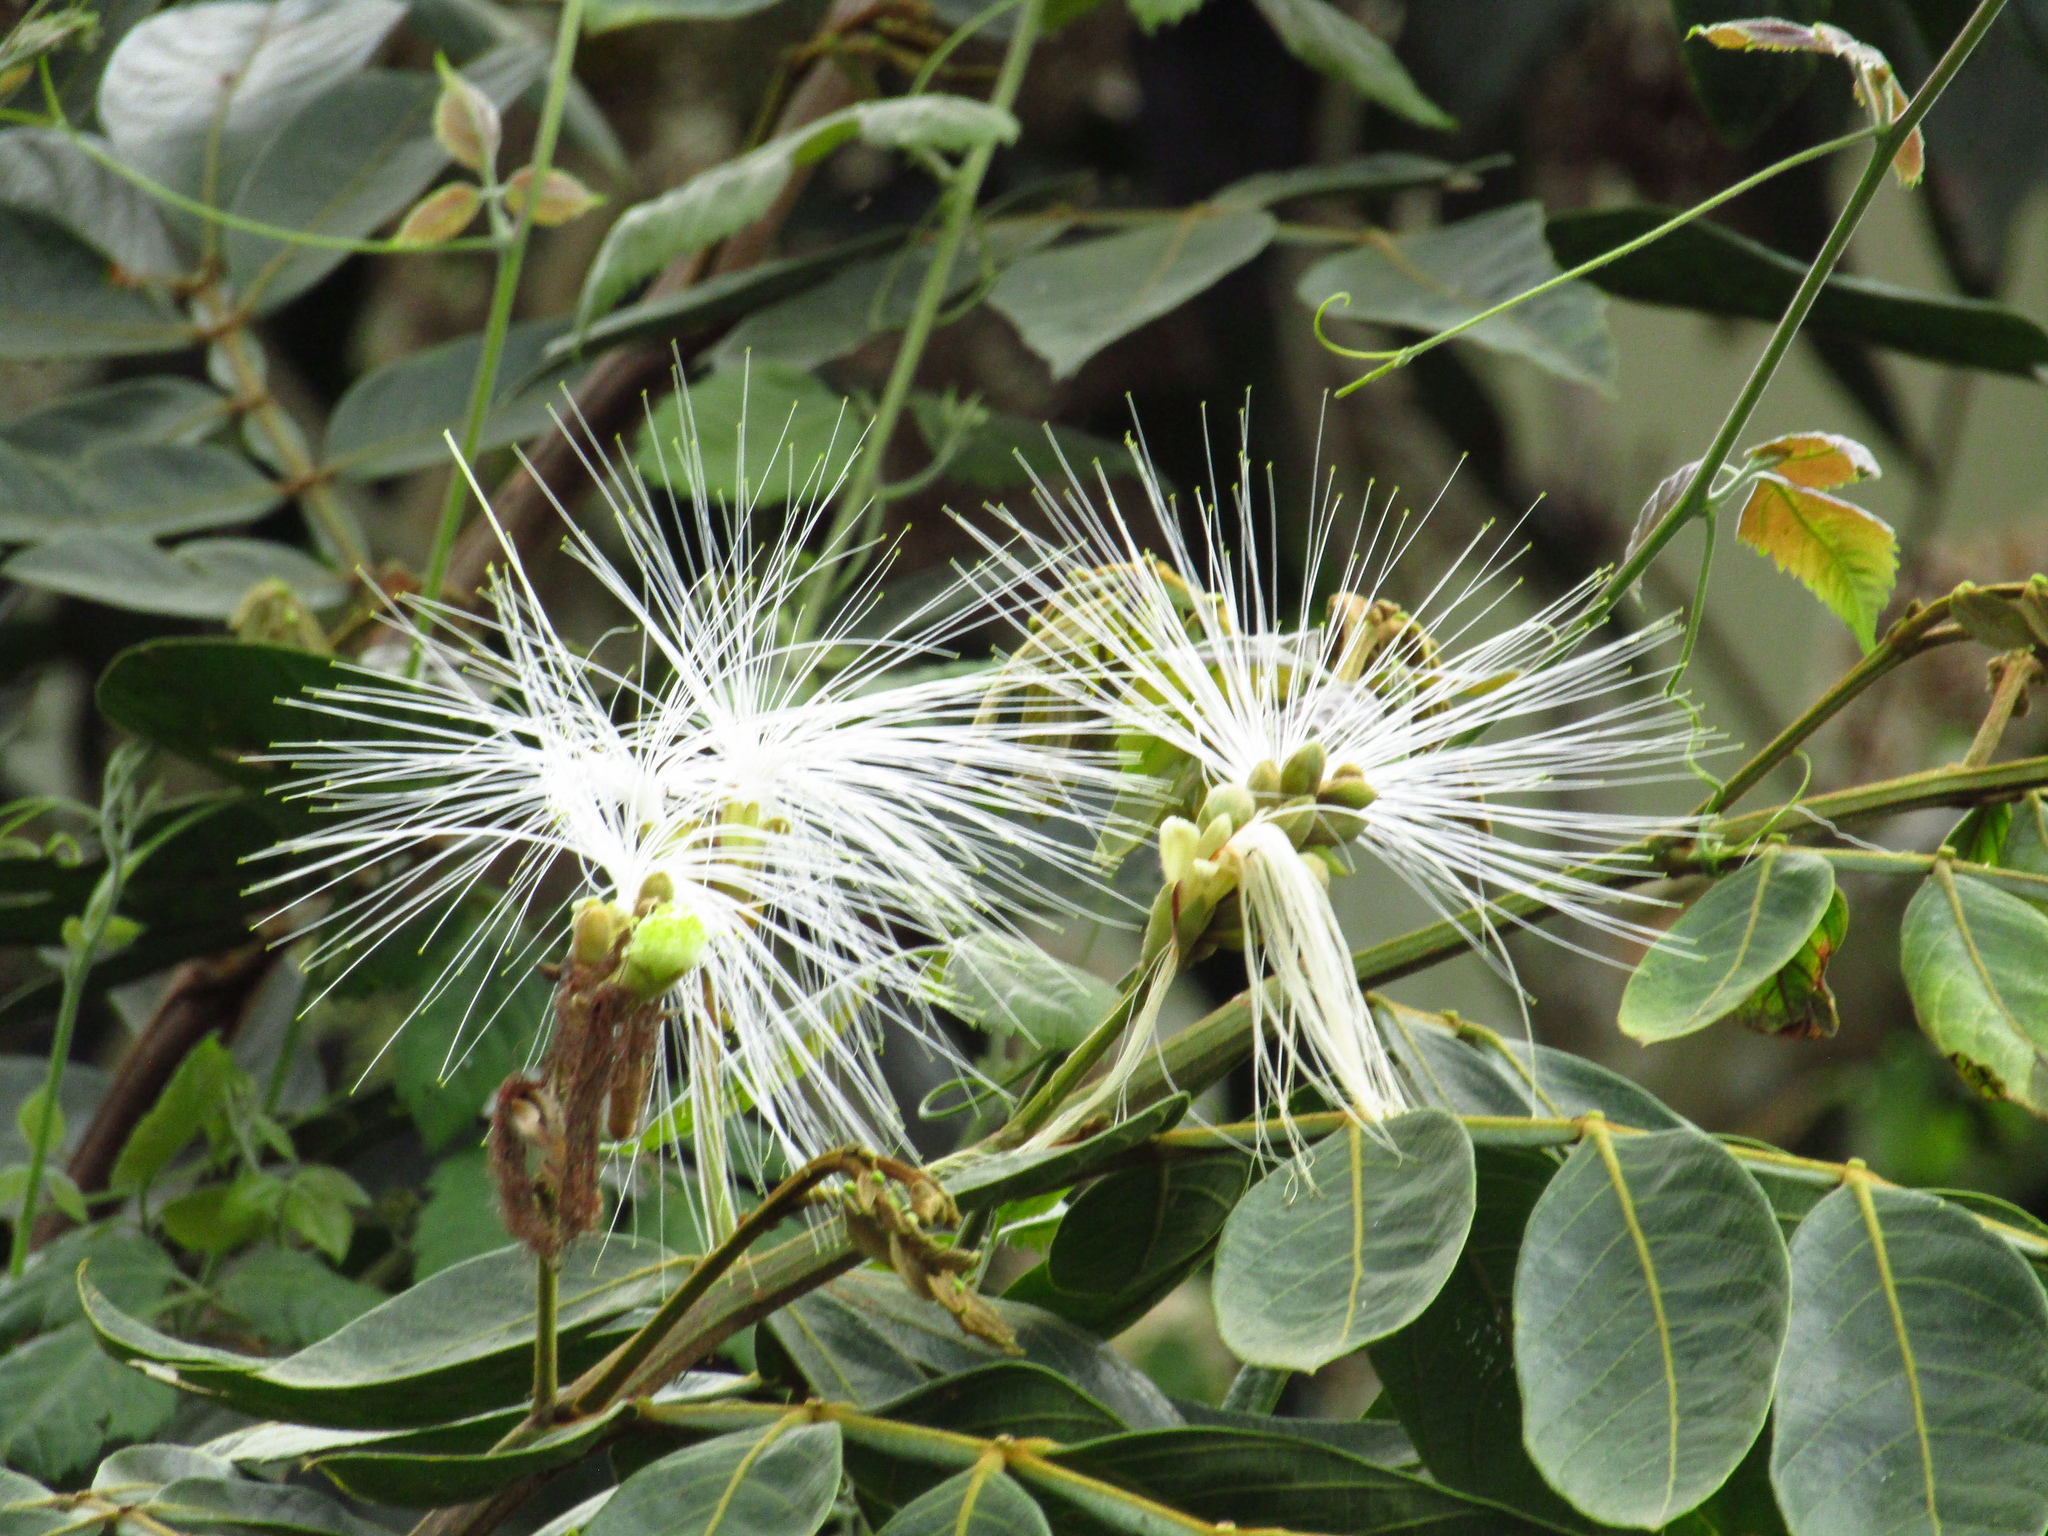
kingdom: Plantae
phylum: Tracheophyta
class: Magnoliopsida
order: Fabales
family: Fabaceae
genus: Inga
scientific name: Inga vera
